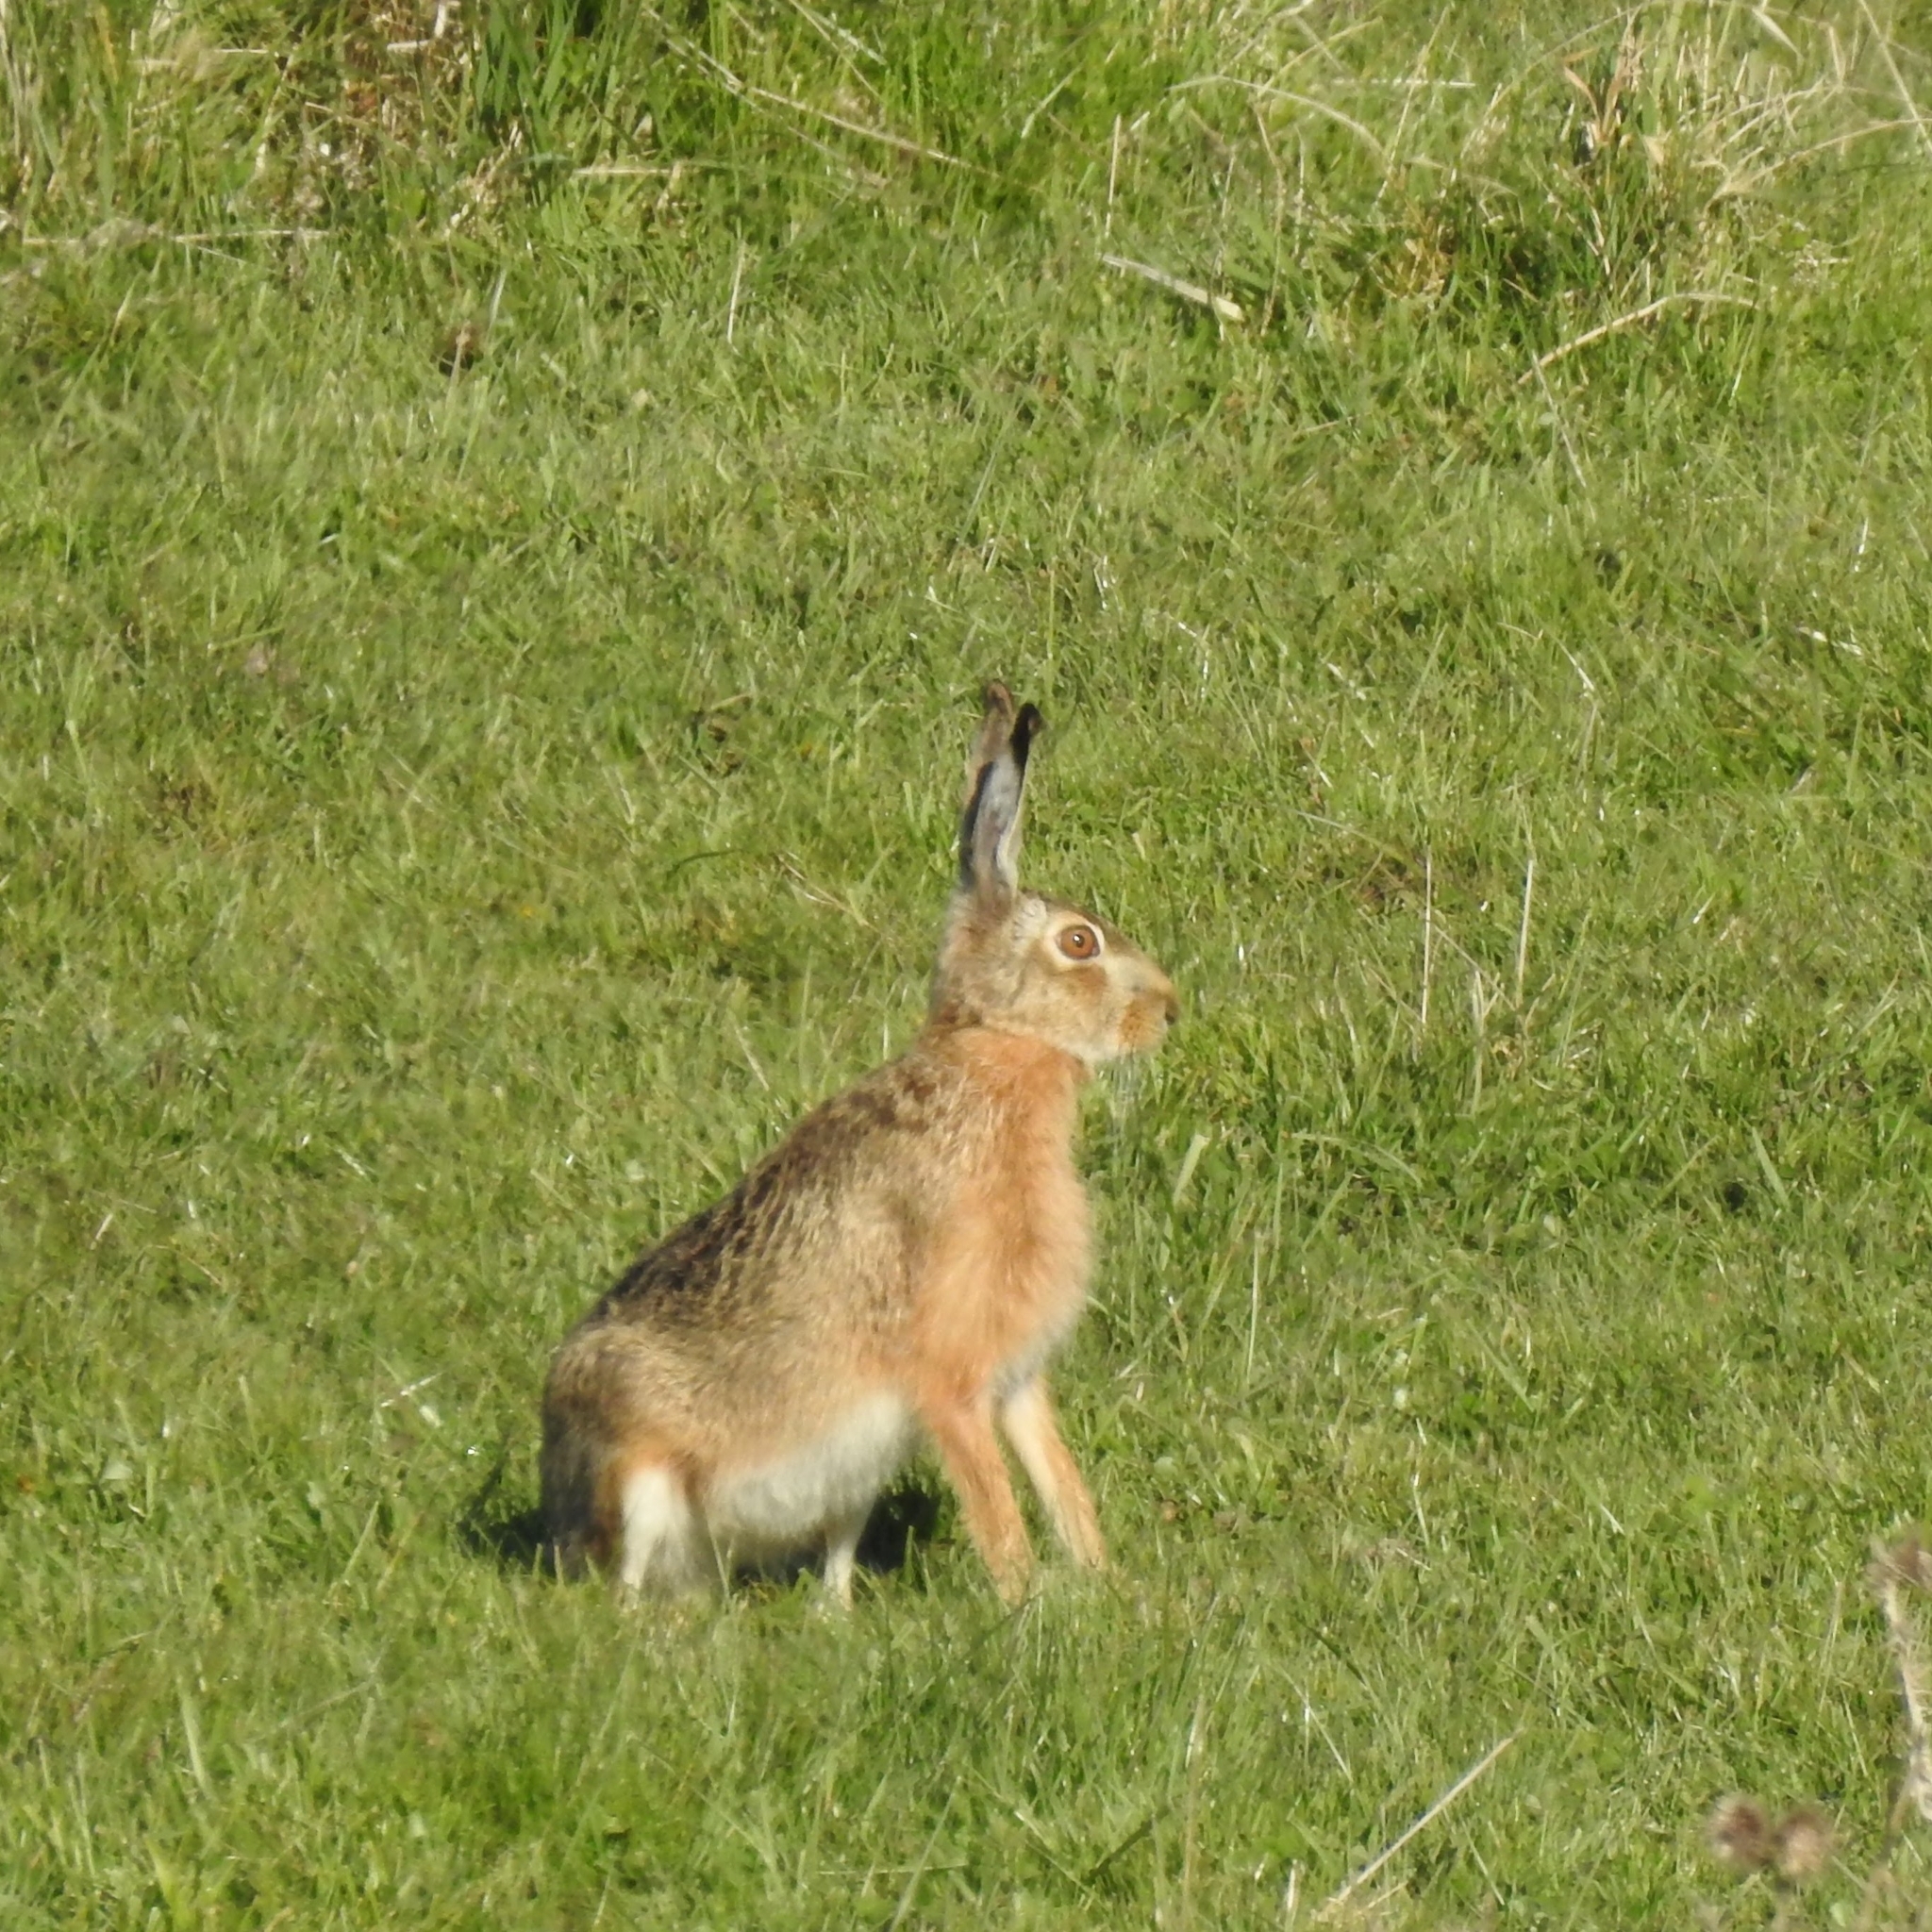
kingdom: Animalia
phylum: Chordata
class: Mammalia
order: Lagomorpha
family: Leporidae
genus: Lepus
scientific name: Lepus europaeus
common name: European hare
